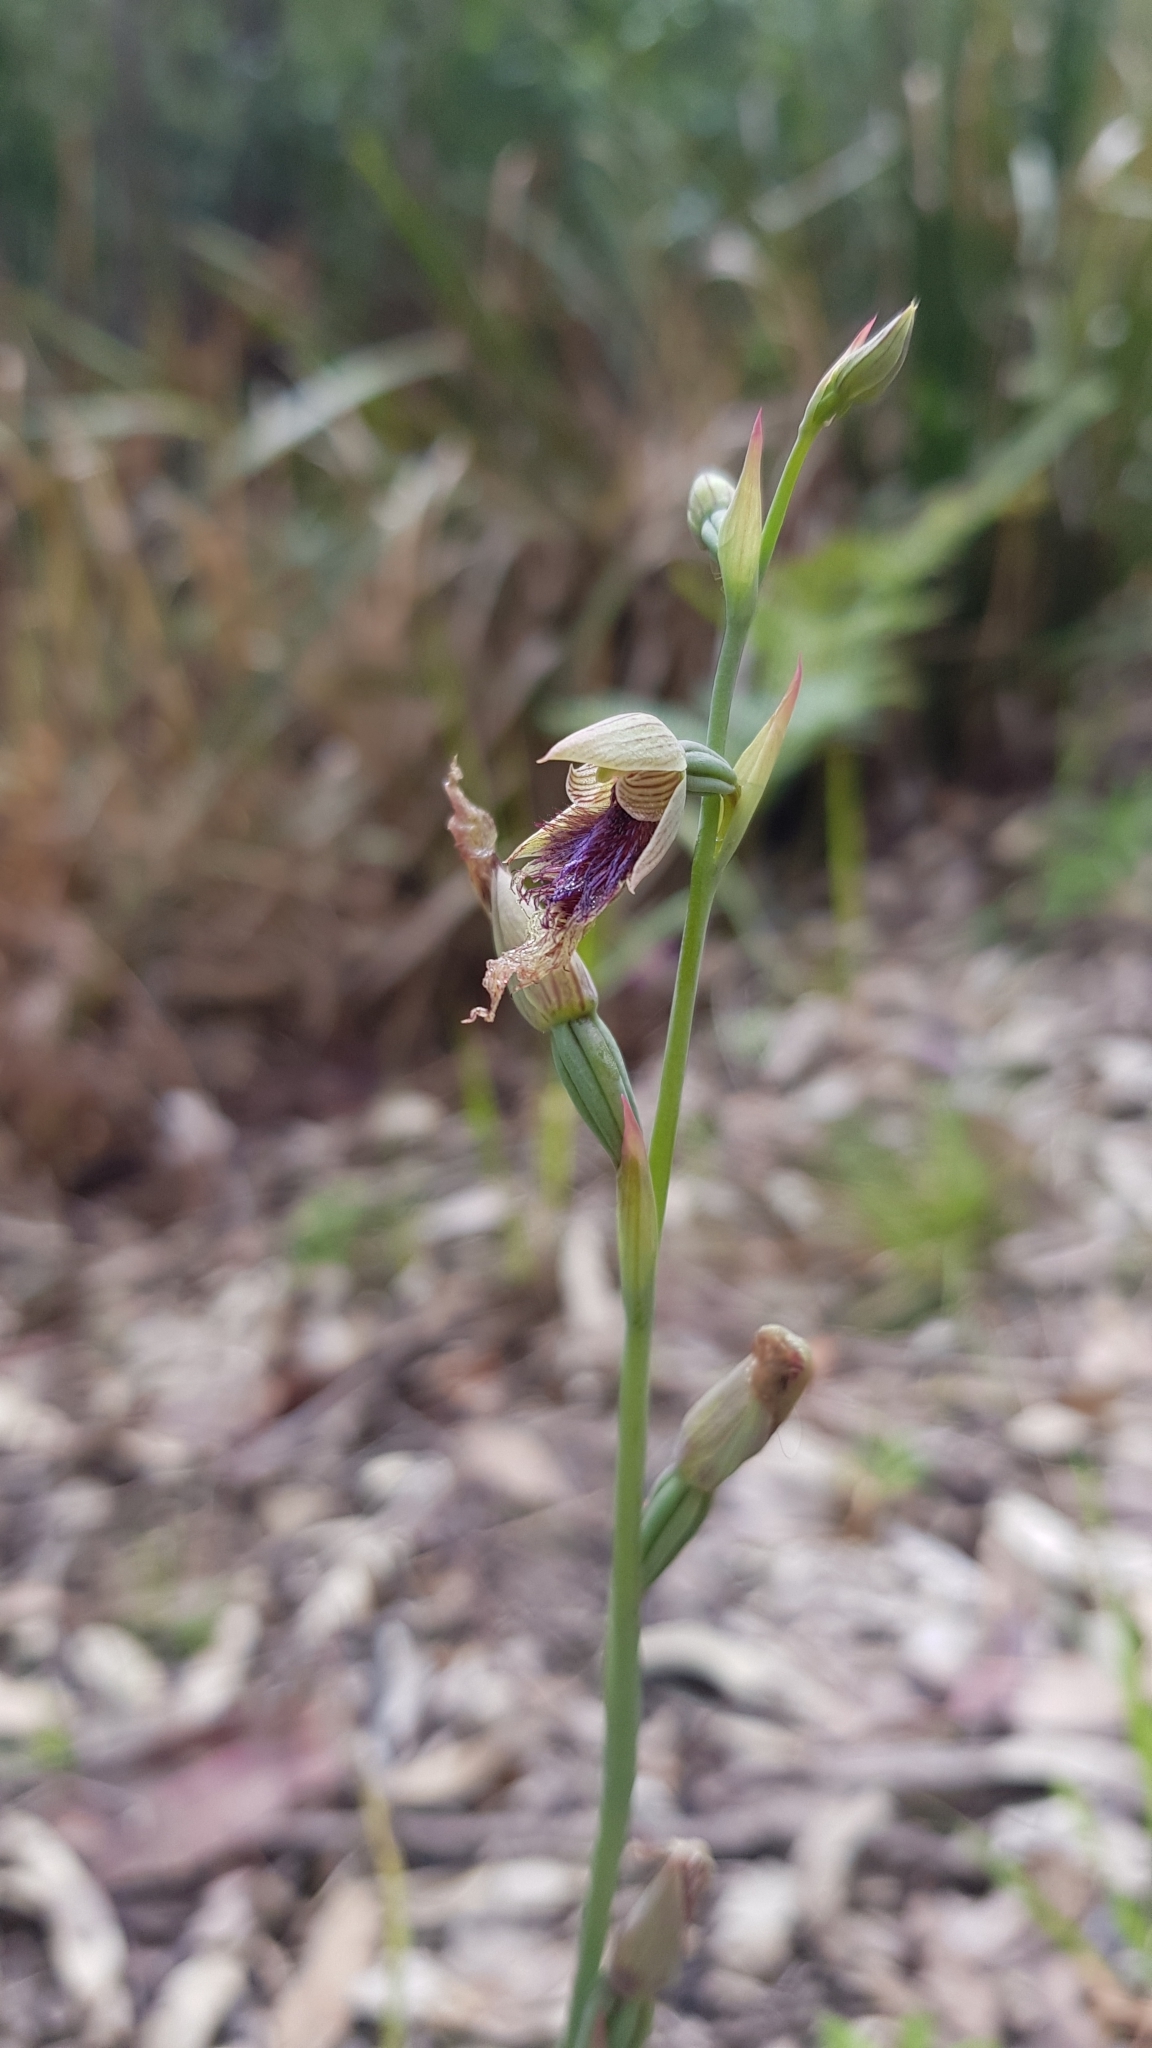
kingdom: Plantae
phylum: Tracheophyta
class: Liliopsida
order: Asparagales
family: Orchidaceae
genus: Calochilus
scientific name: Calochilus robertsonii
